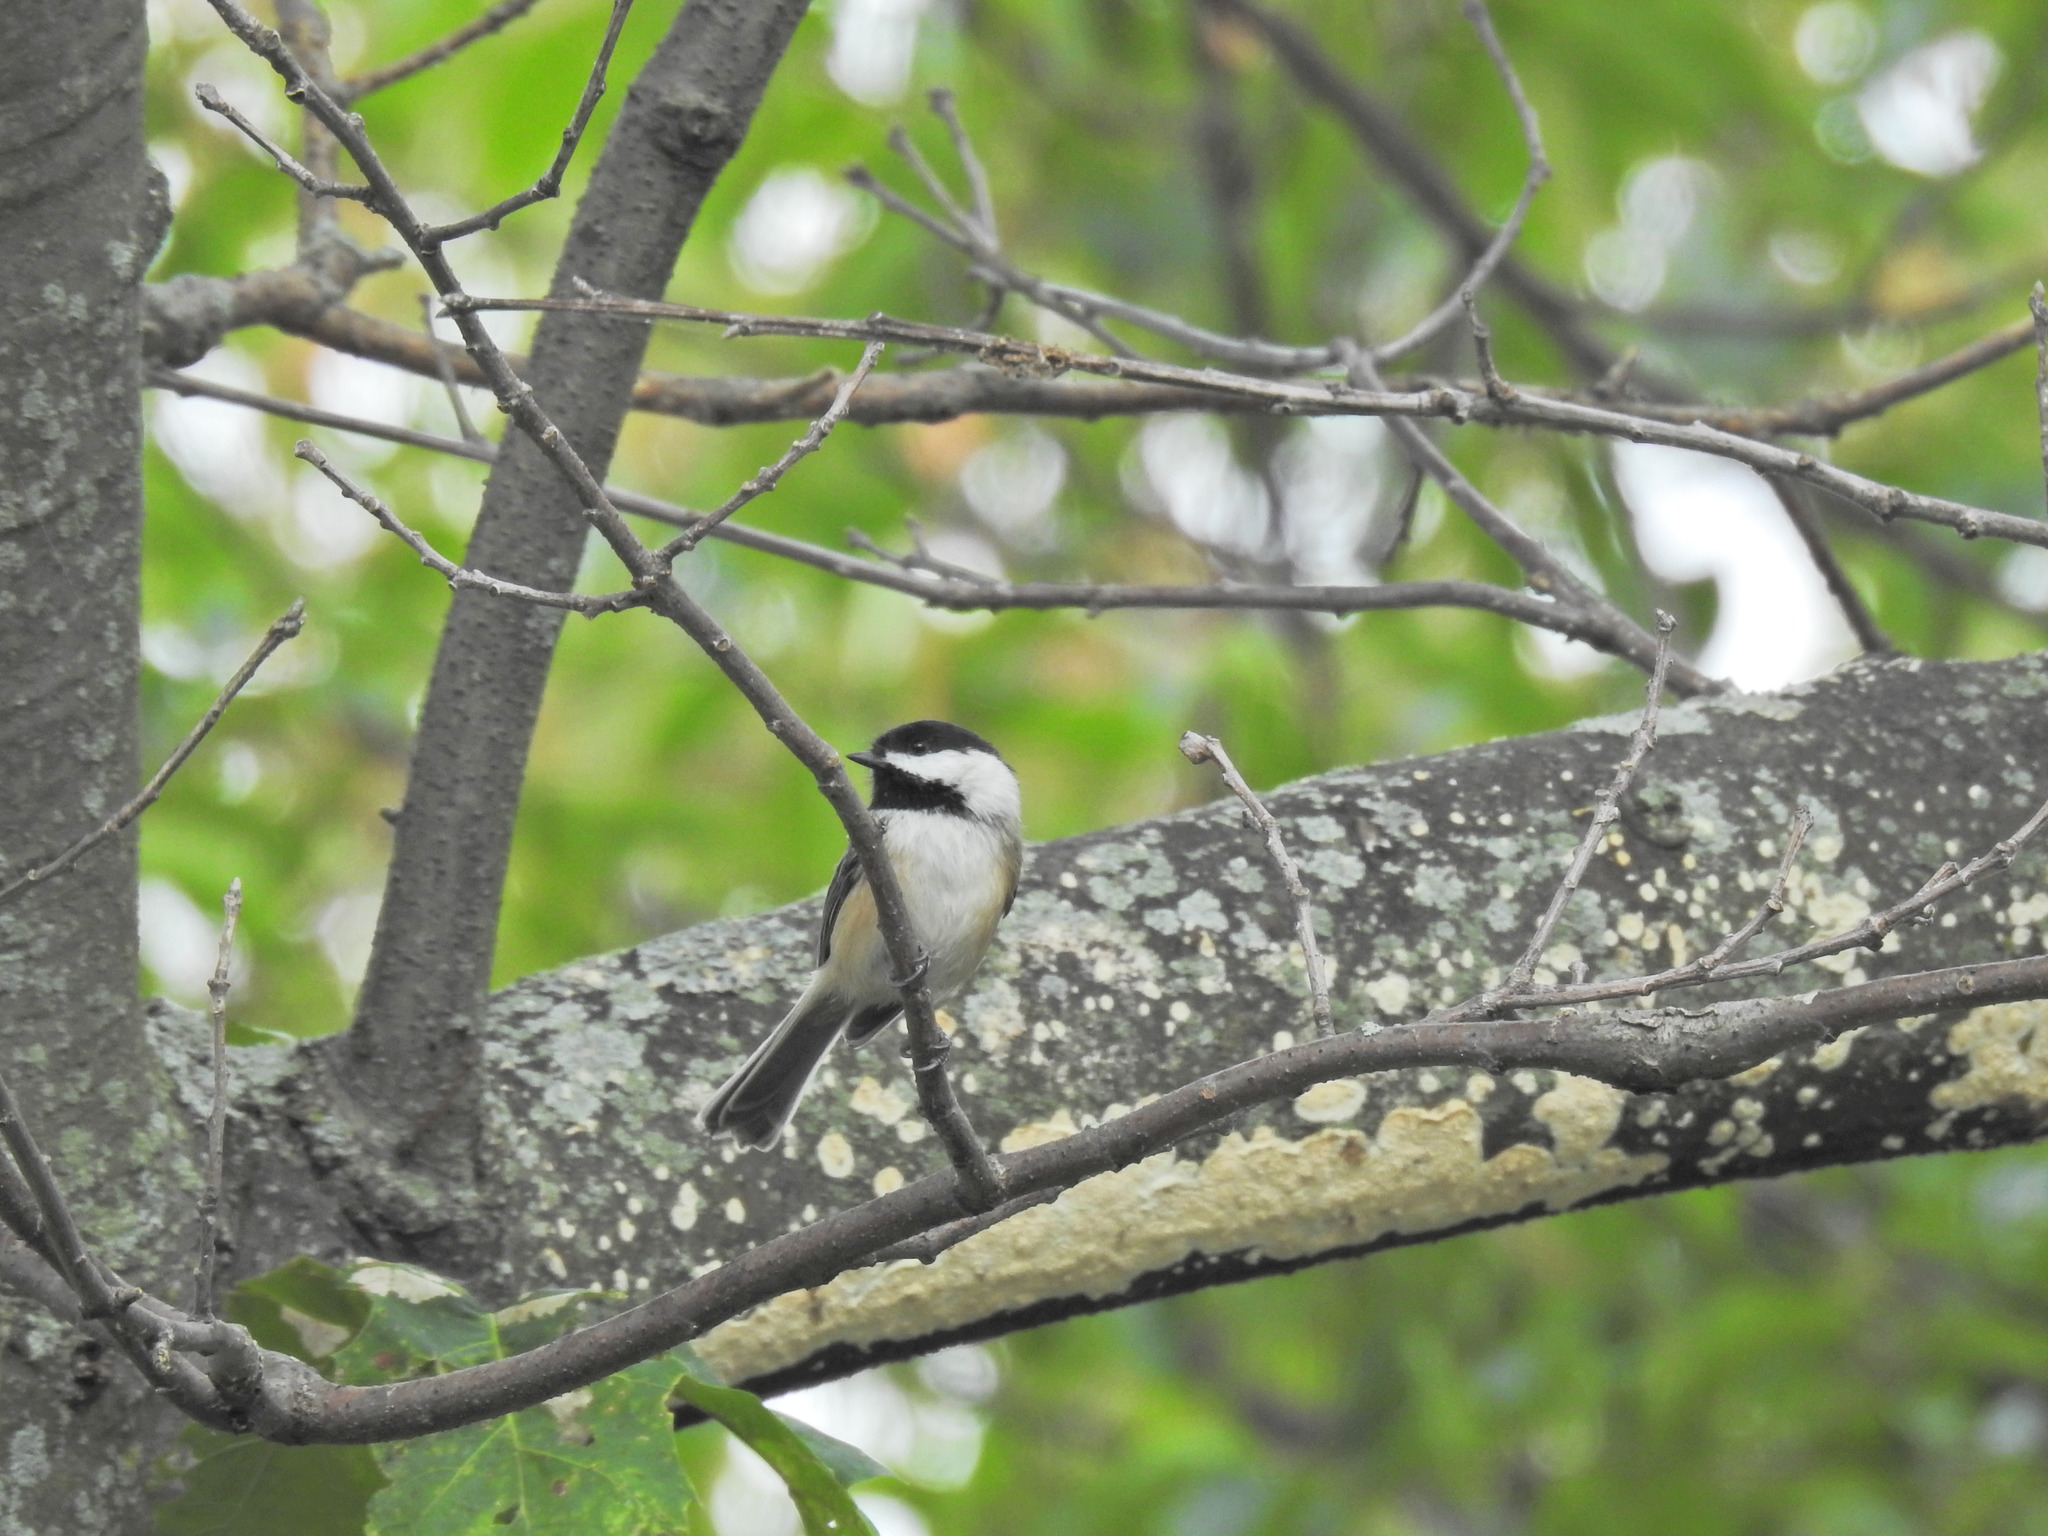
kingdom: Animalia
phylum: Chordata
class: Aves
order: Passeriformes
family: Paridae
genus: Poecile
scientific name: Poecile atricapillus
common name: Black-capped chickadee
